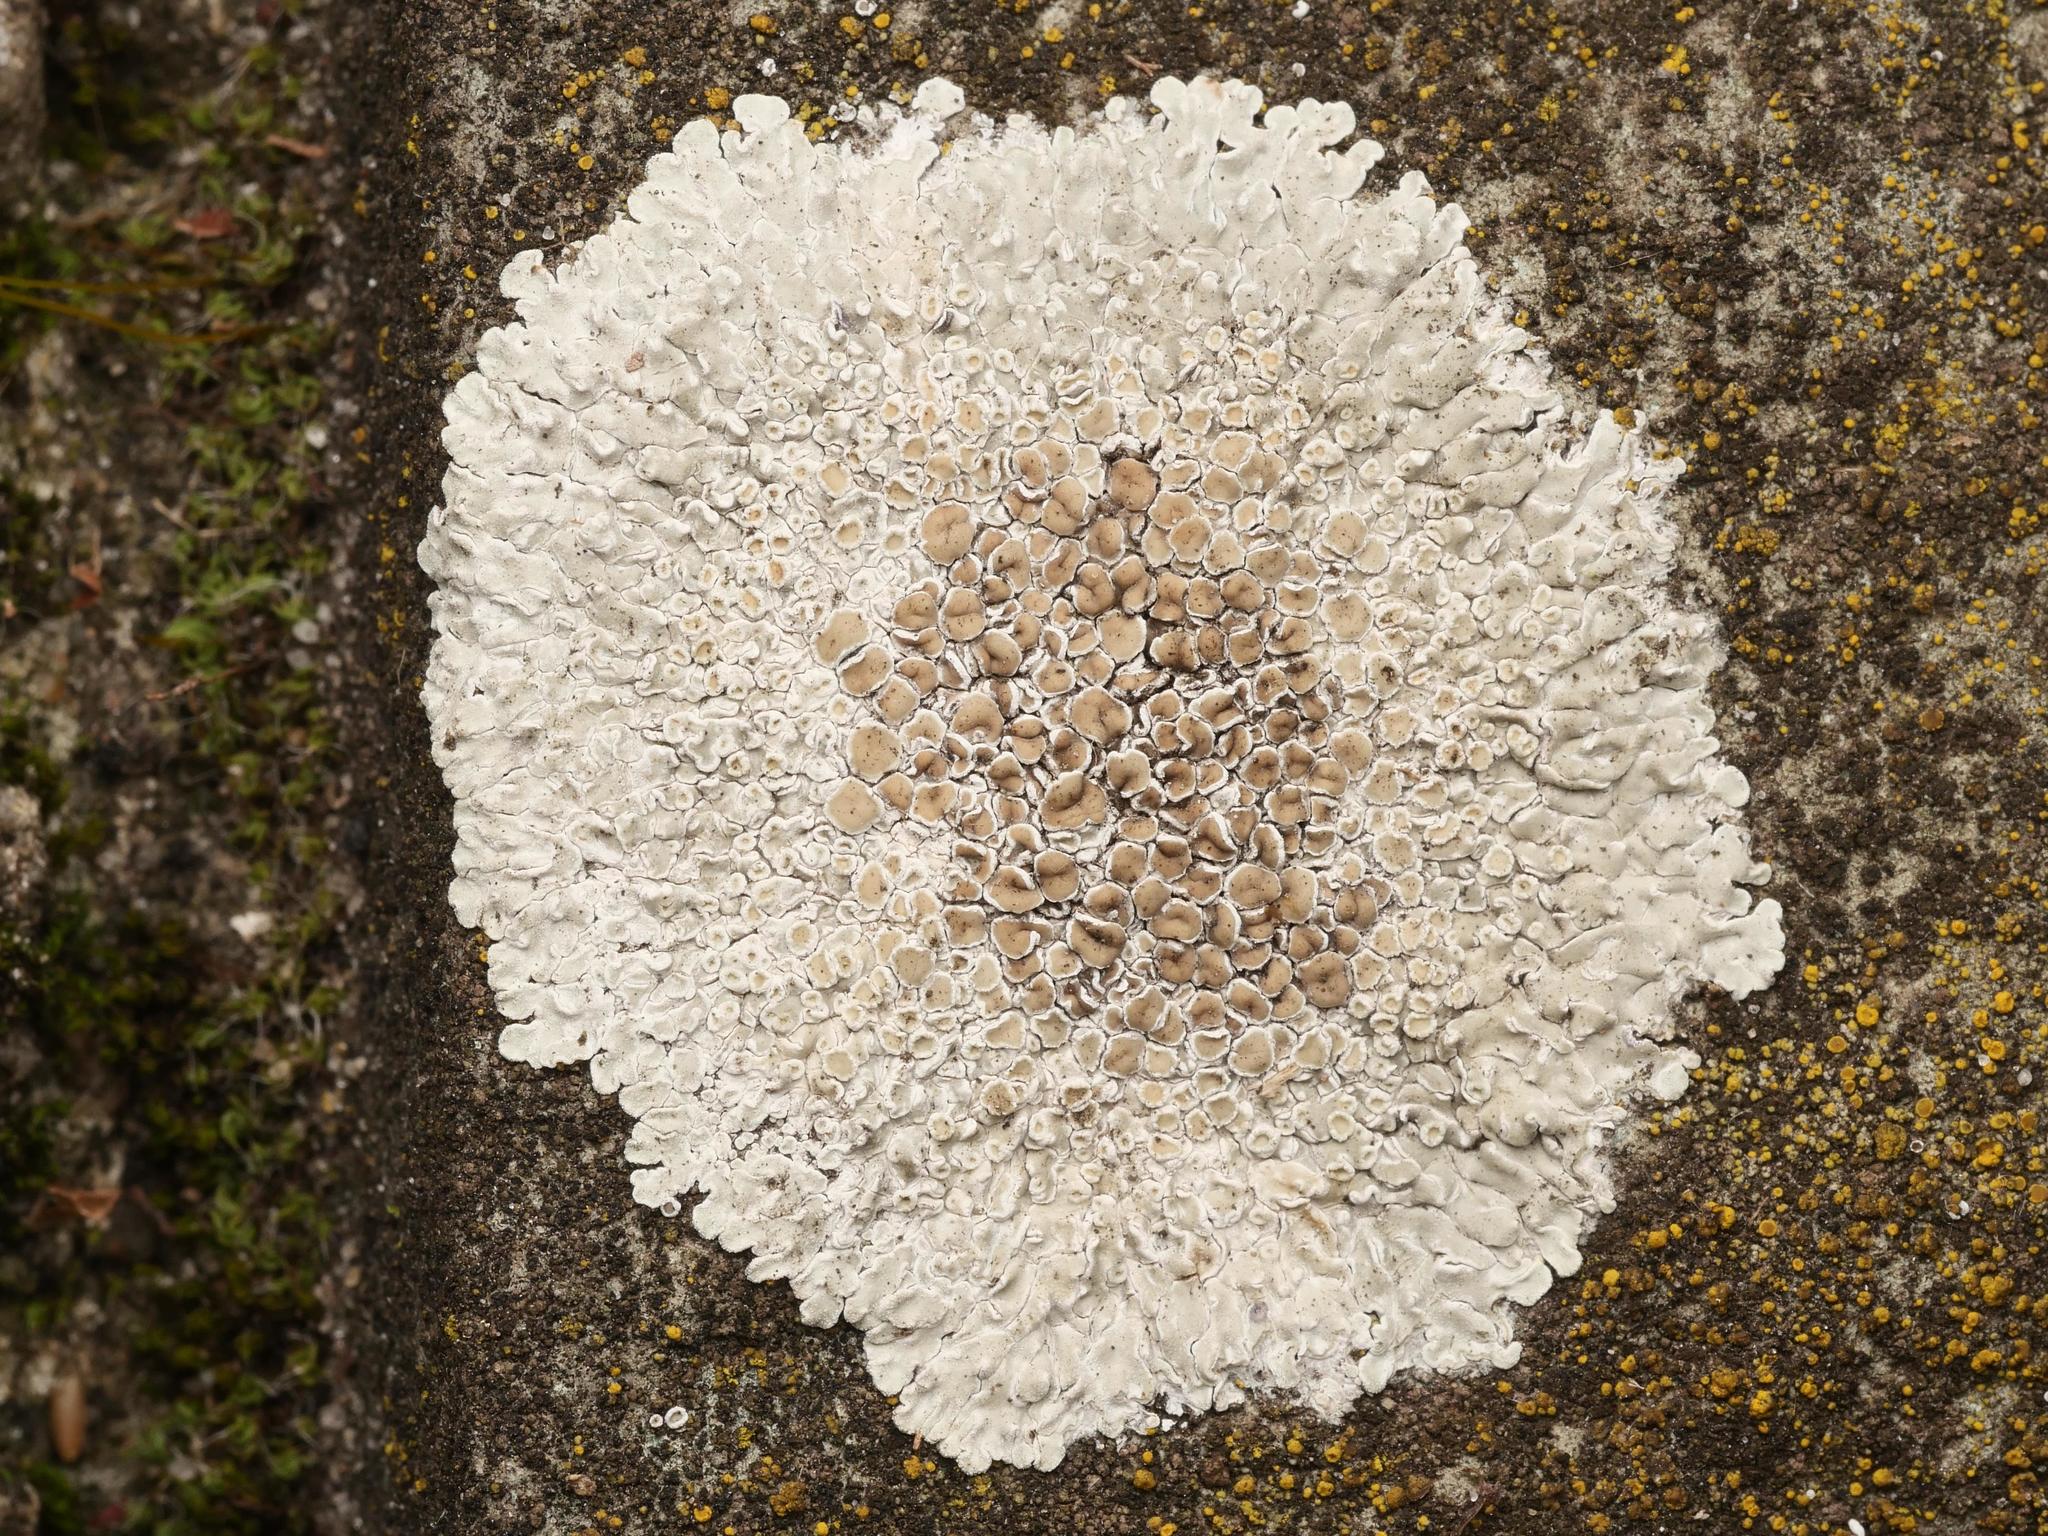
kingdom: Fungi
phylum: Ascomycota
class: Lecanoromycetes
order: Lecanorales
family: Lecanoraceae
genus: Protoparmeliopsis
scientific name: Protoparmeliopsis muralis
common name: Stonewall rim lichen
